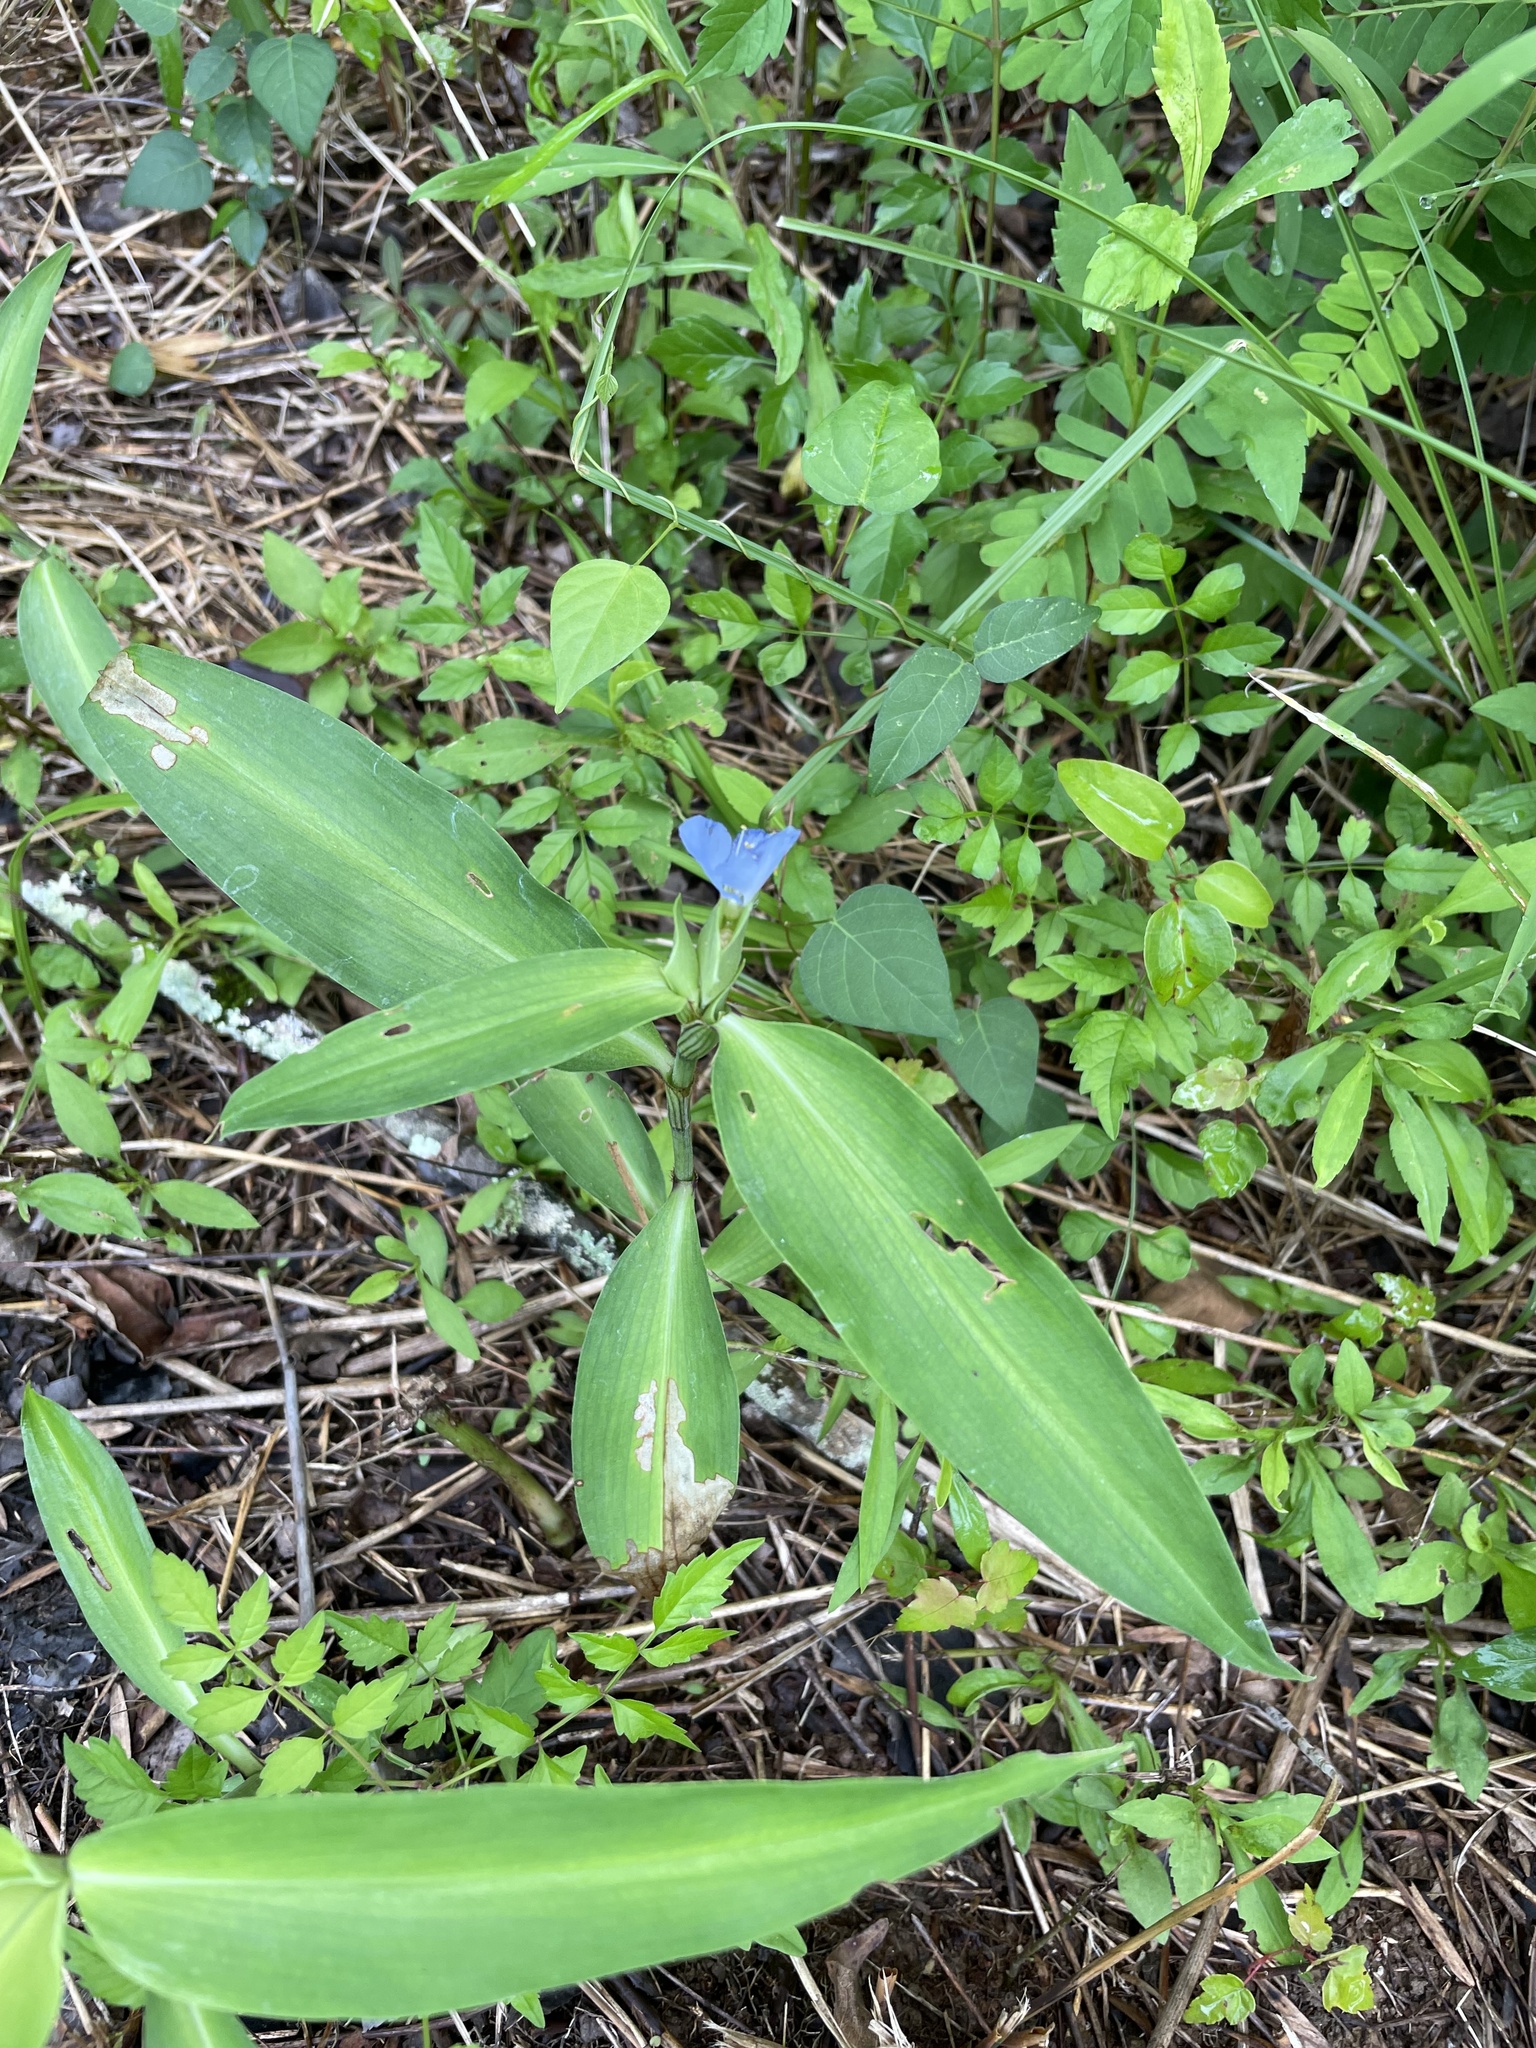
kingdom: Plantae
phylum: Tracheophyta
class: Liliopsida
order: Commelinales
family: Commelinaceae
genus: Commelina
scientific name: Commelina virginica
